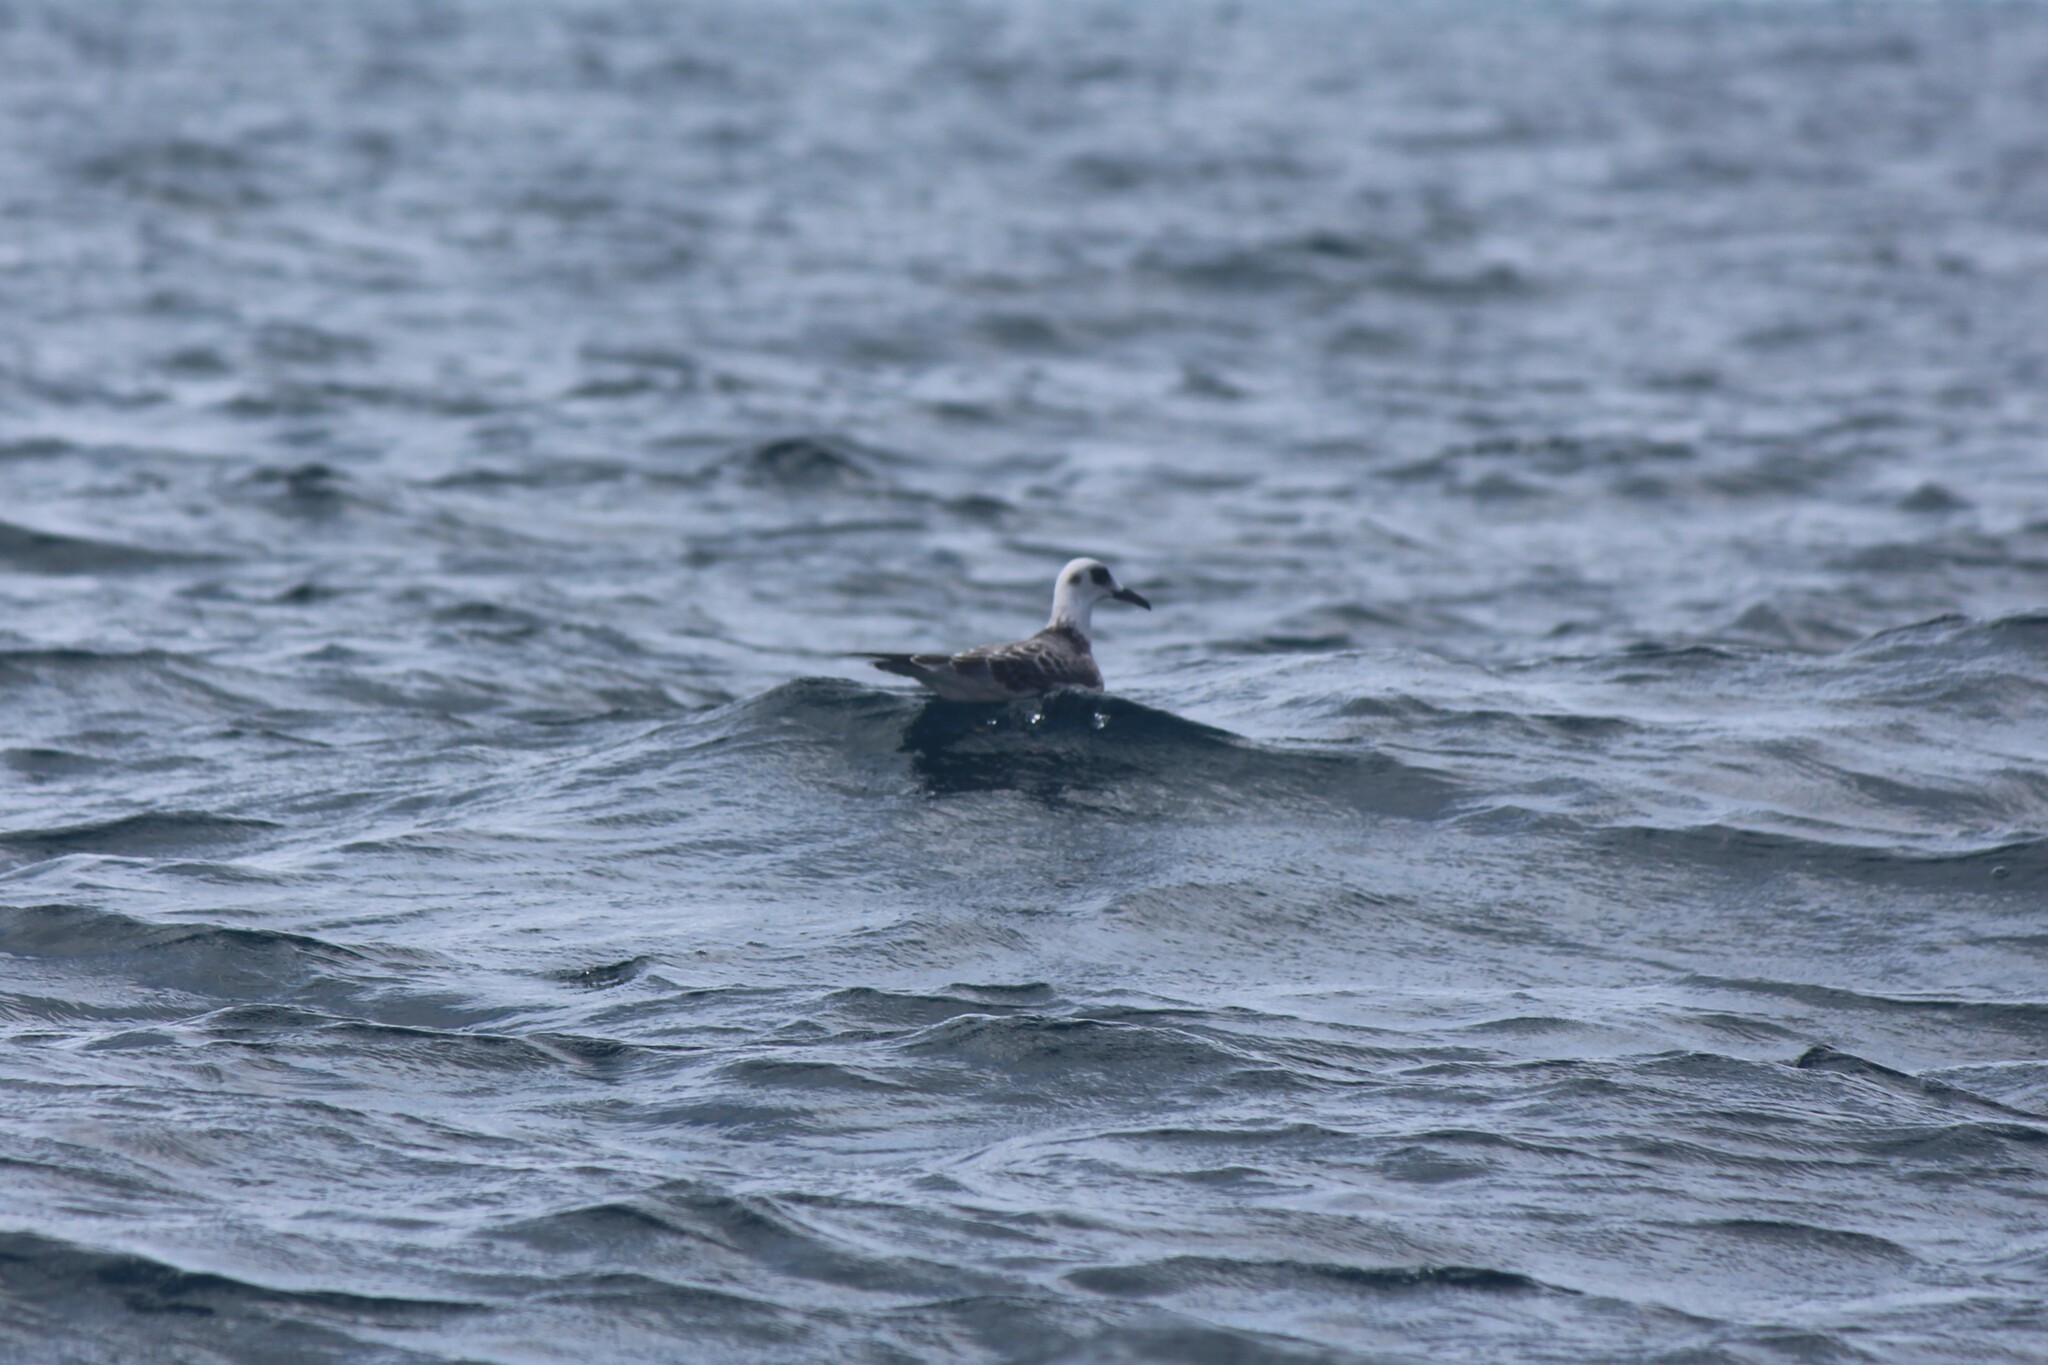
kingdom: Animalia
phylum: Chordata
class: Aves
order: Charadriiformes
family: Laridae
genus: Creagrus
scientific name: Creagrus furcatus
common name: Swallow-tailed gull
